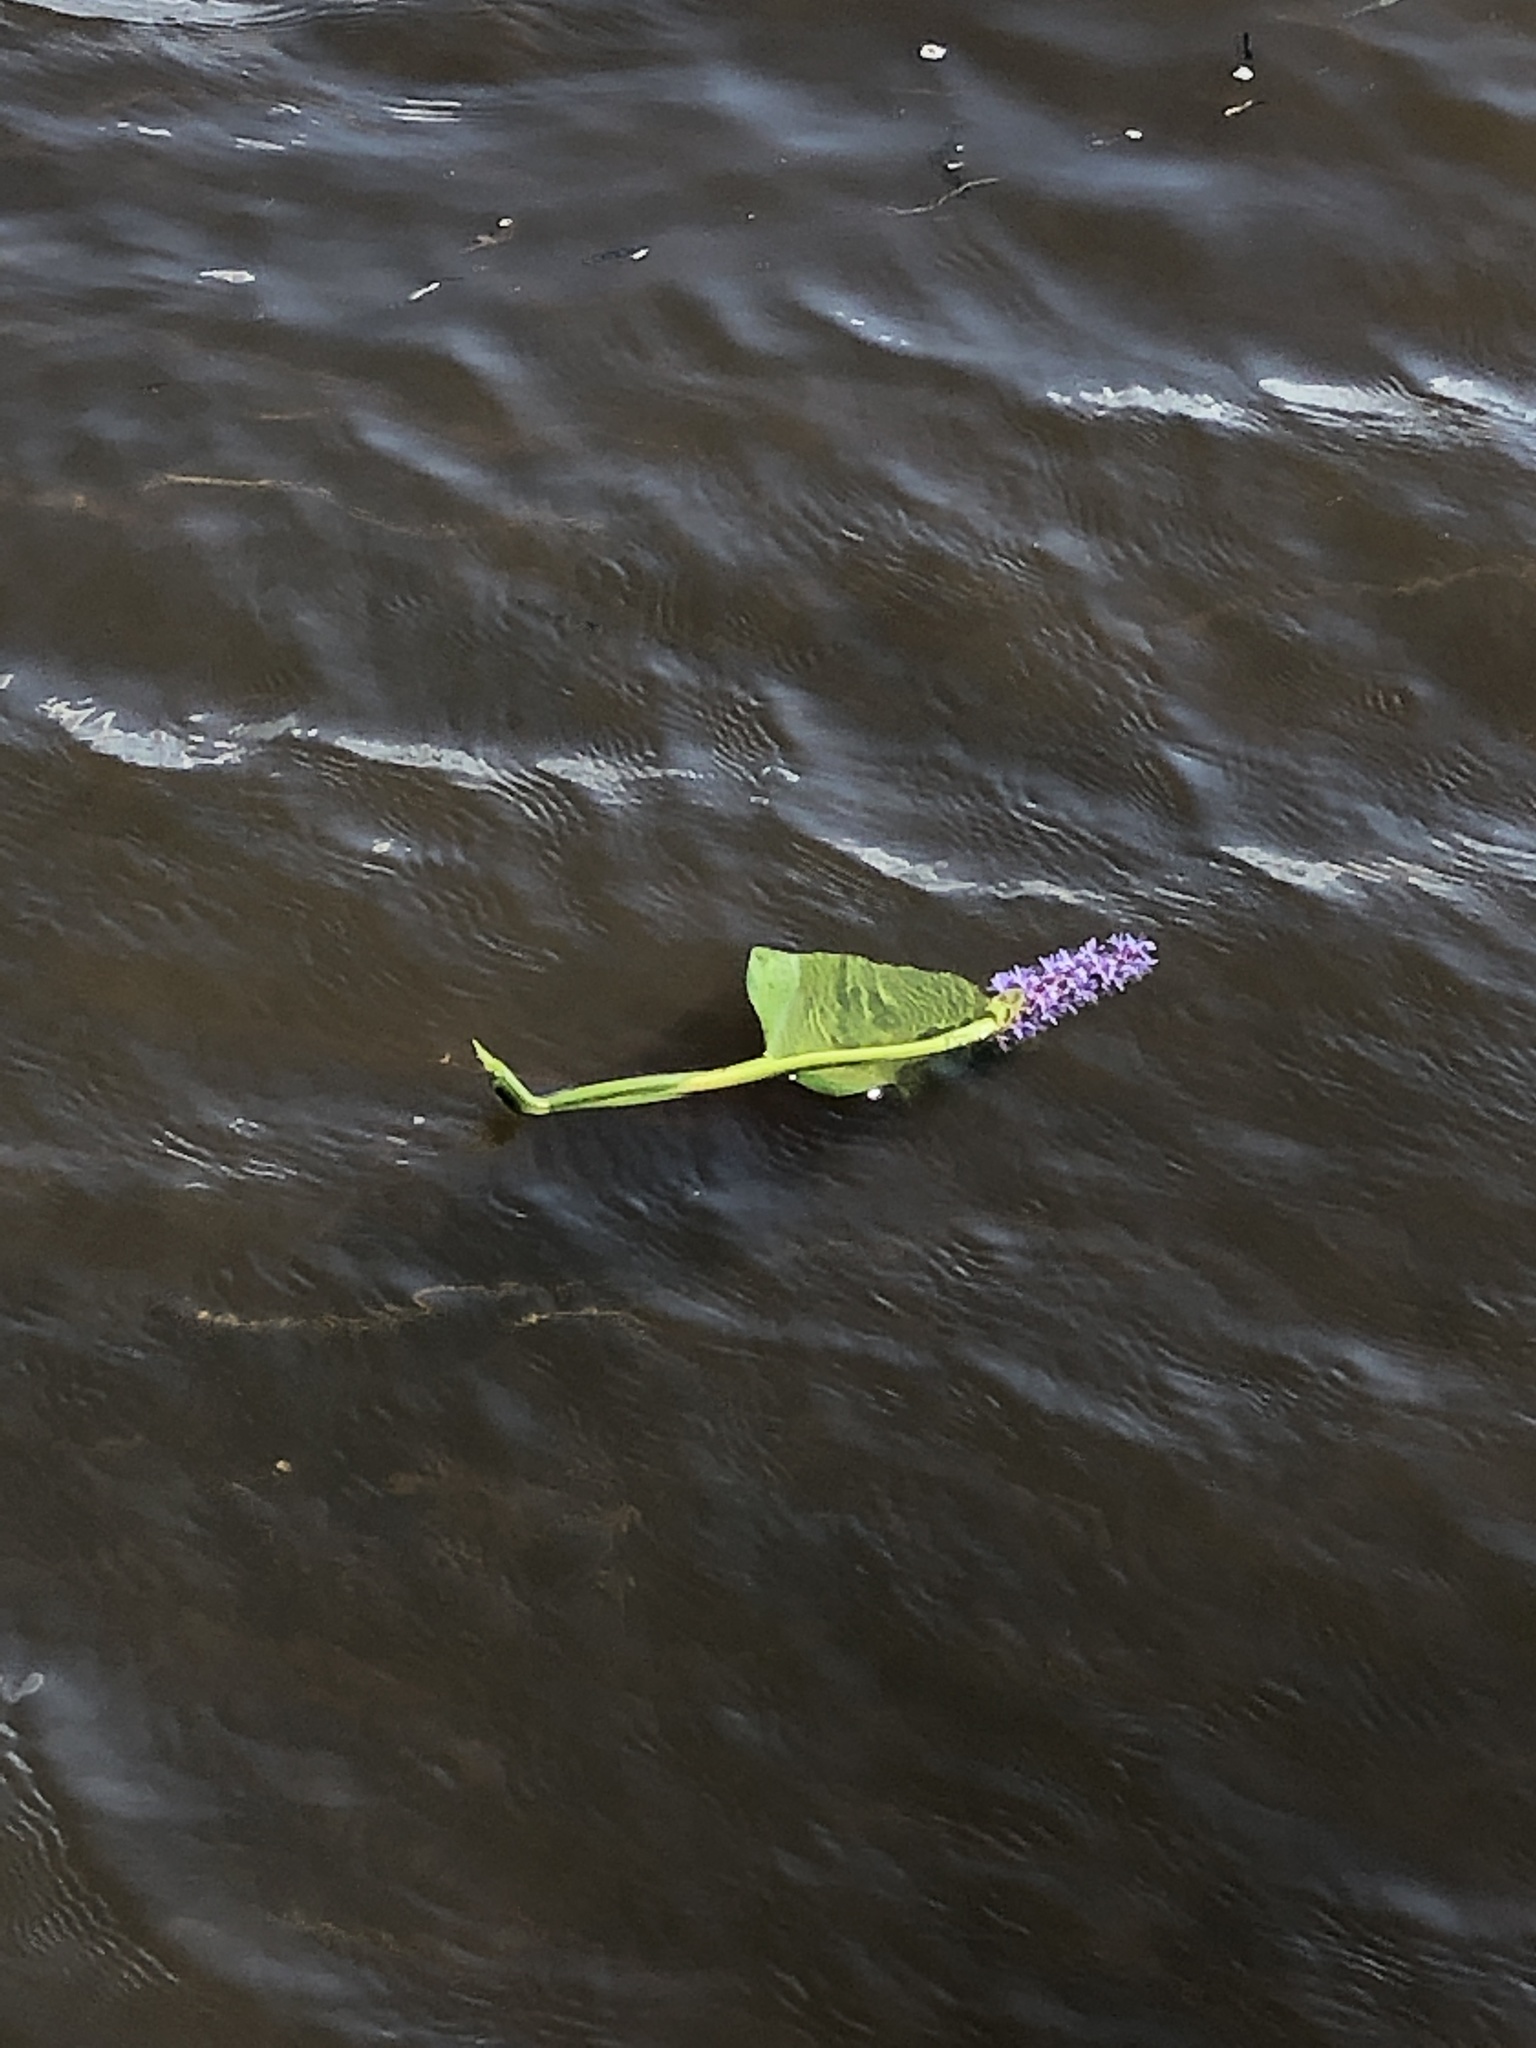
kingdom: Plantae
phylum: Tracheophyta
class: Liliopsida
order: Commelinales
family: Pontederiaceae
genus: Pontederia
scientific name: Pontederia cordata
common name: Pickerelweed
